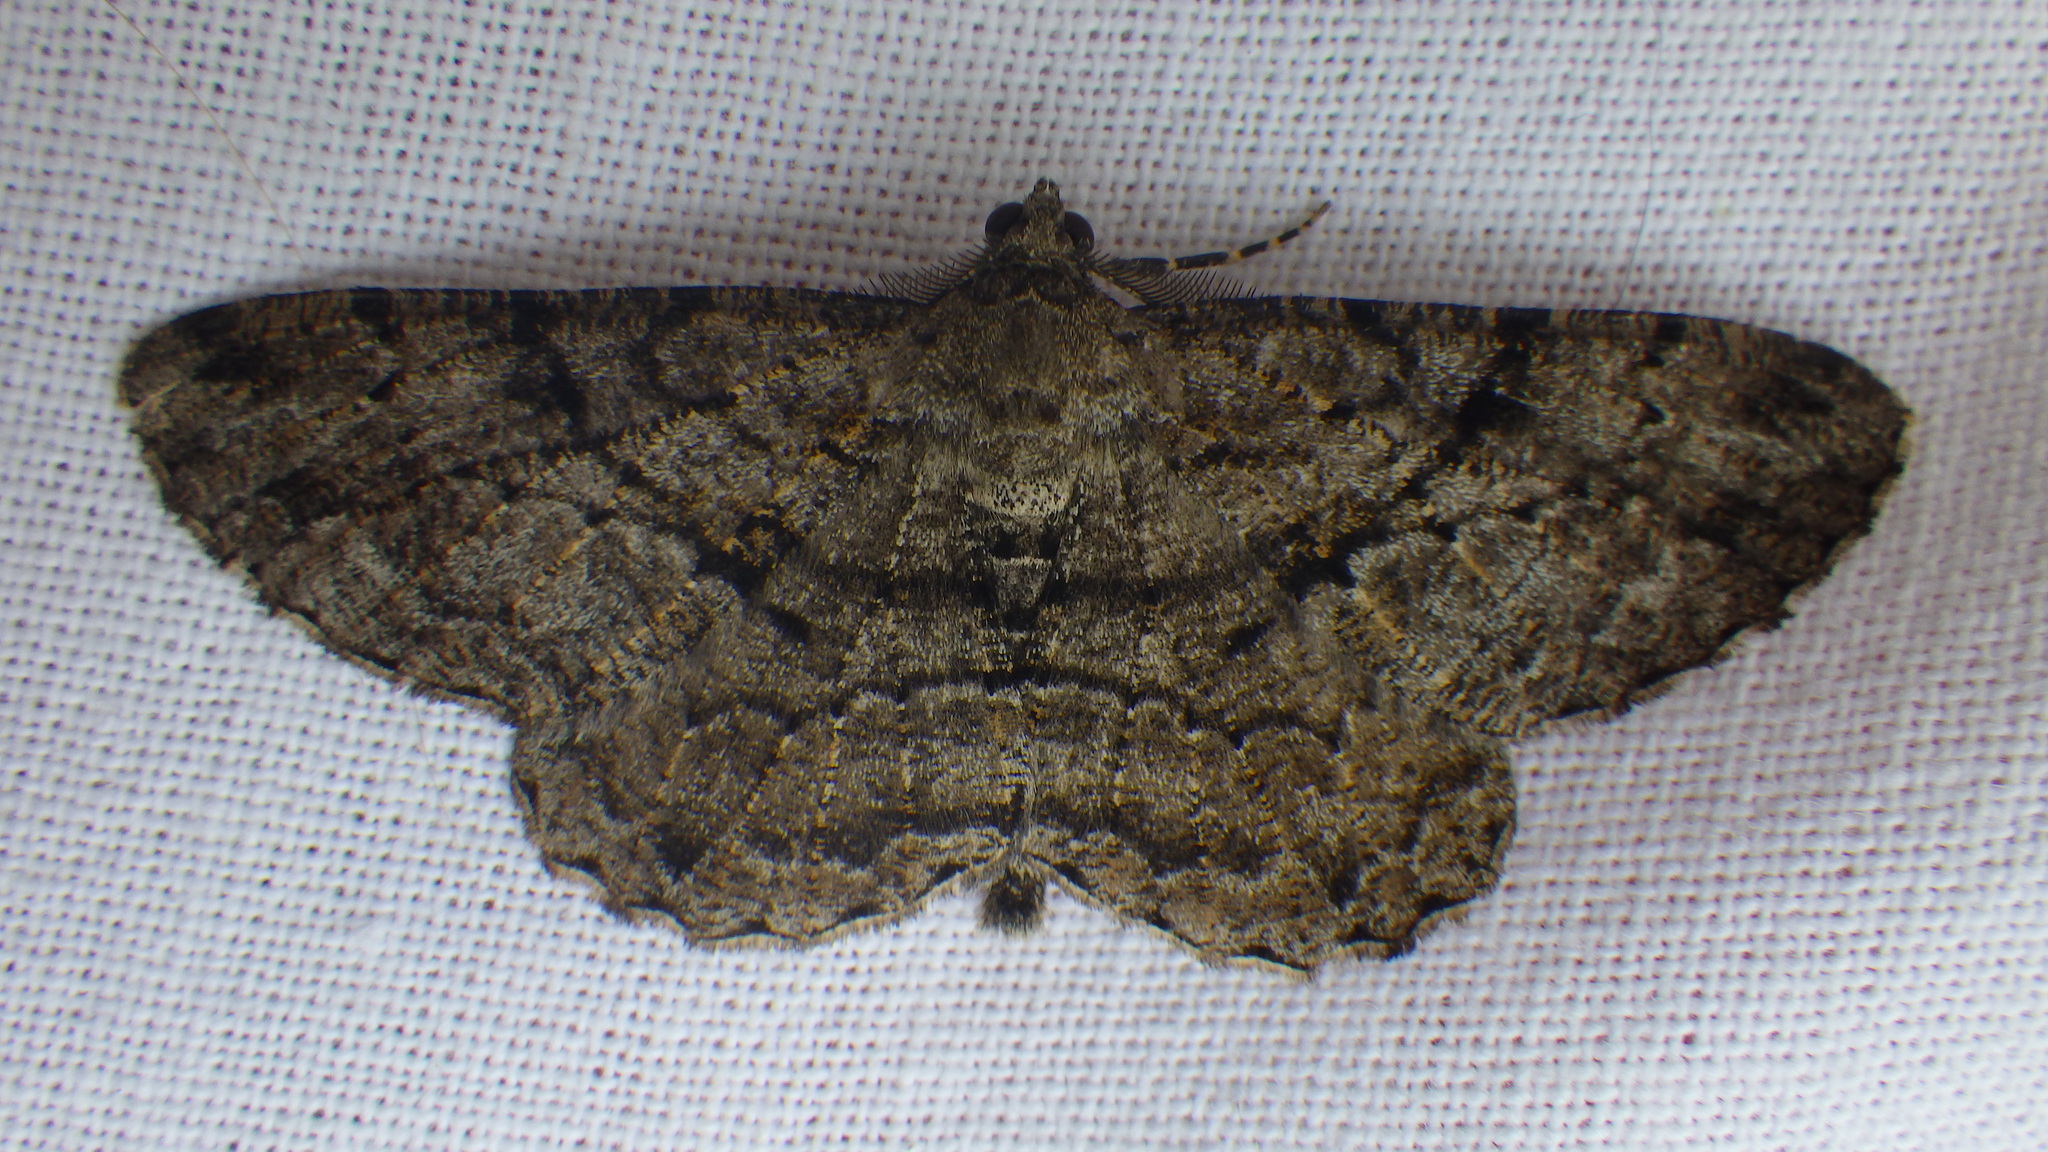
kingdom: Animalia
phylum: Arthropoda
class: Insecta
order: Lepidoptera
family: Geometridae
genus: Peribatodes
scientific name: Peribatodes rhomboidaria
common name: Willow beauty
